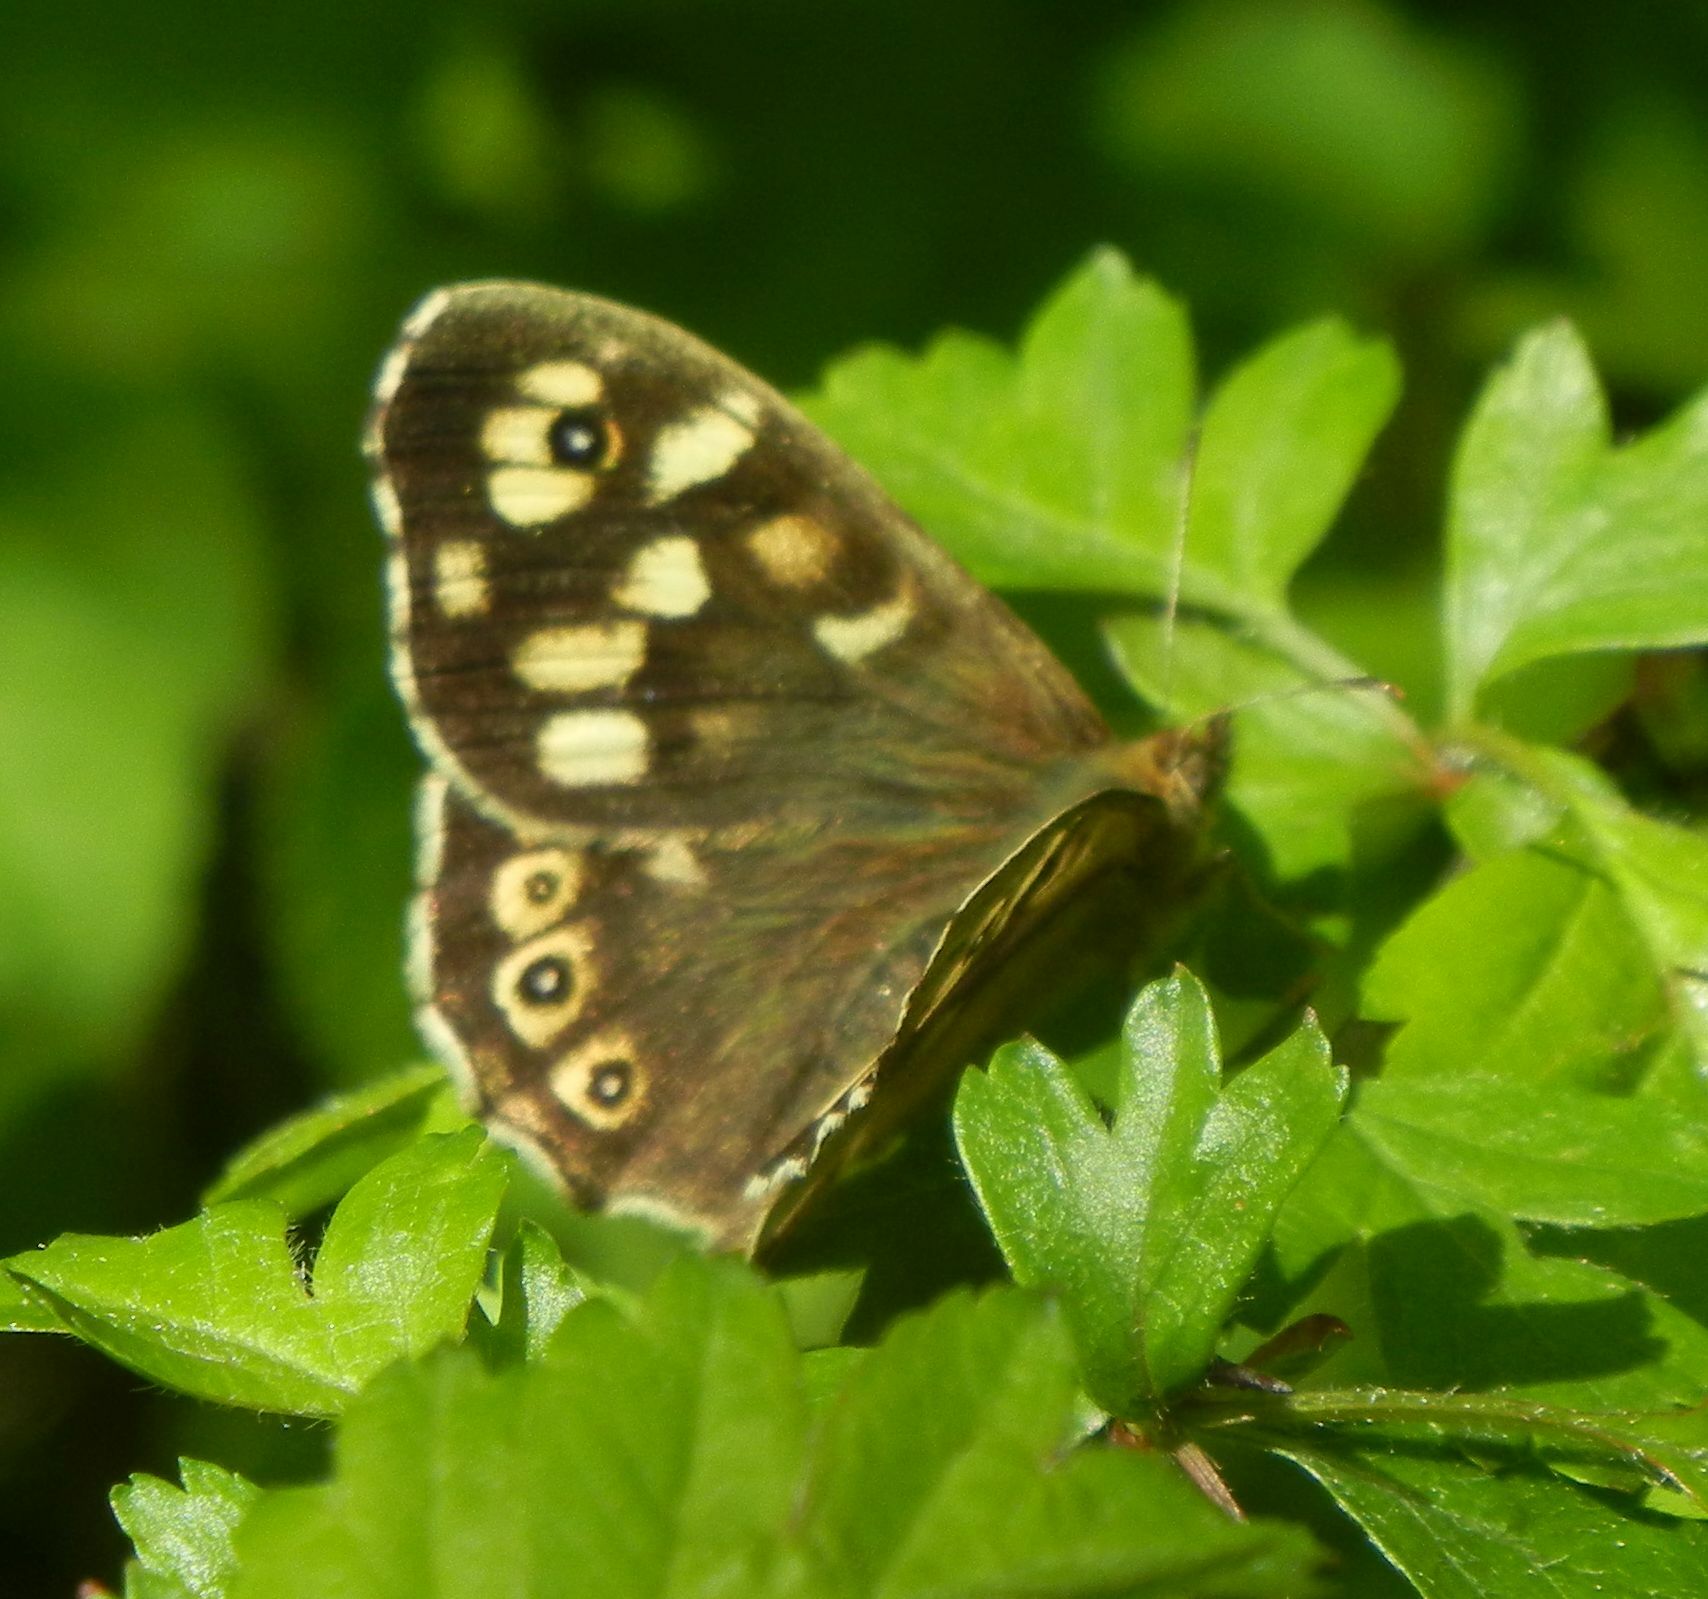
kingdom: Animalia
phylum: Arthropoda
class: Insecta
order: Lepidoptera
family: Nymphalidae
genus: Pararge
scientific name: Pararge aegeria
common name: Speckled wood
